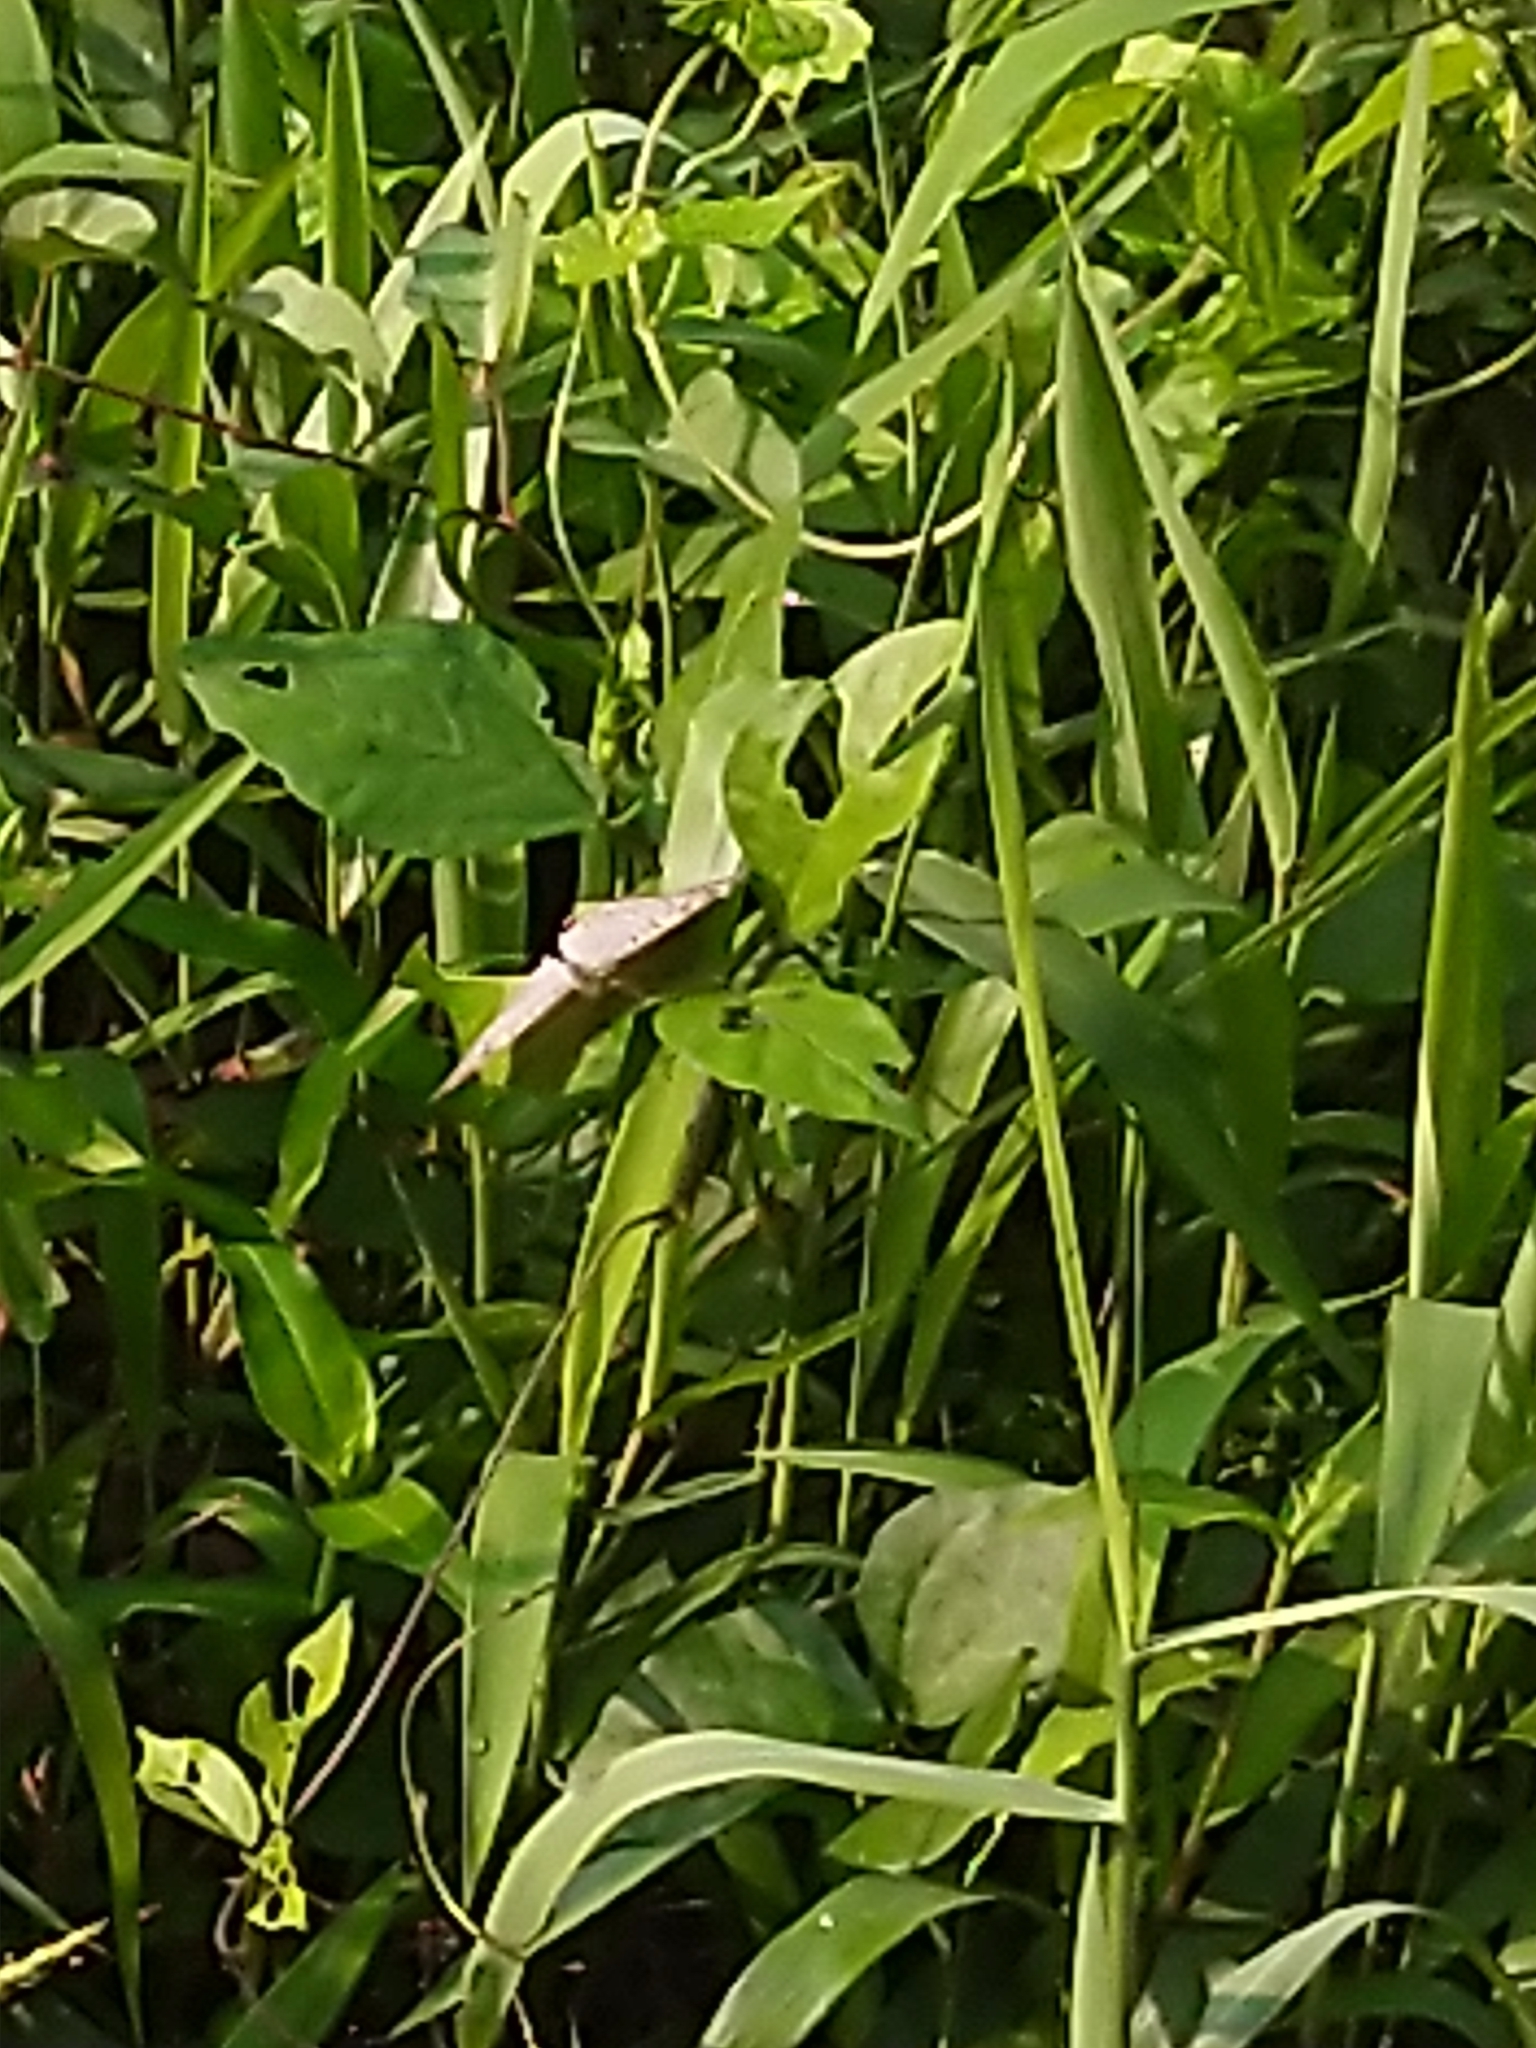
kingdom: Animalia
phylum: Arthropoda
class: Insecta
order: Lepidoptera
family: Nymphalidae
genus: Junonia
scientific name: Junonia atlites
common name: Grey pansy
